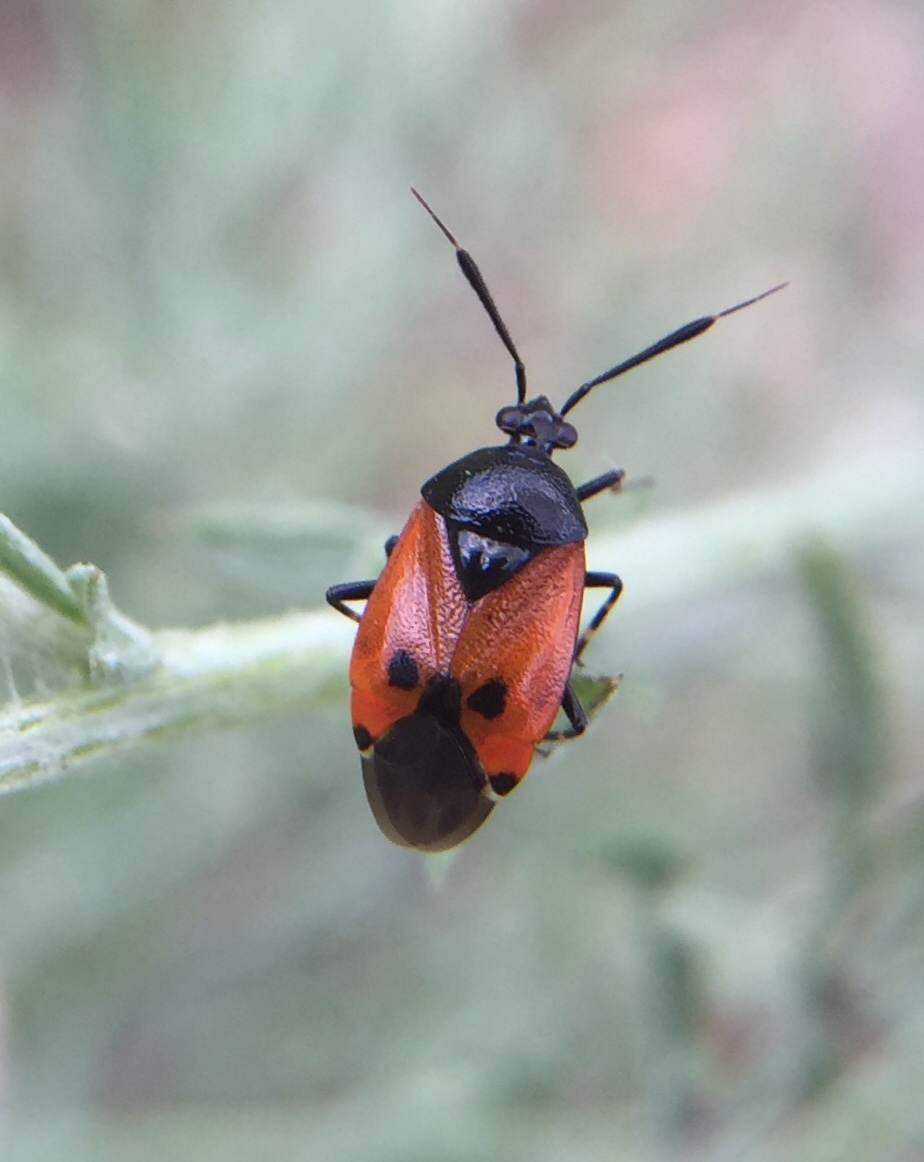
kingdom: Animalia
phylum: Arthropoda
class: Insecta
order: Hemiptera
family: Miridae
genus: Deraeocoris
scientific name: Deraeocoris rutilus
